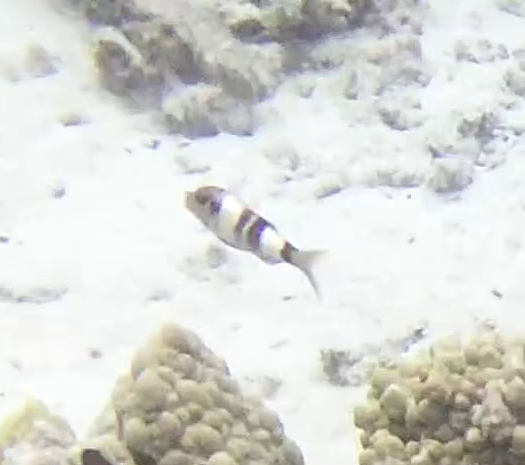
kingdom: Animalia
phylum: Chordata
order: Perciformes
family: Mullidae
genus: Parupeneus
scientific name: Parupeneus multifasciatus
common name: Manybar goatfish
